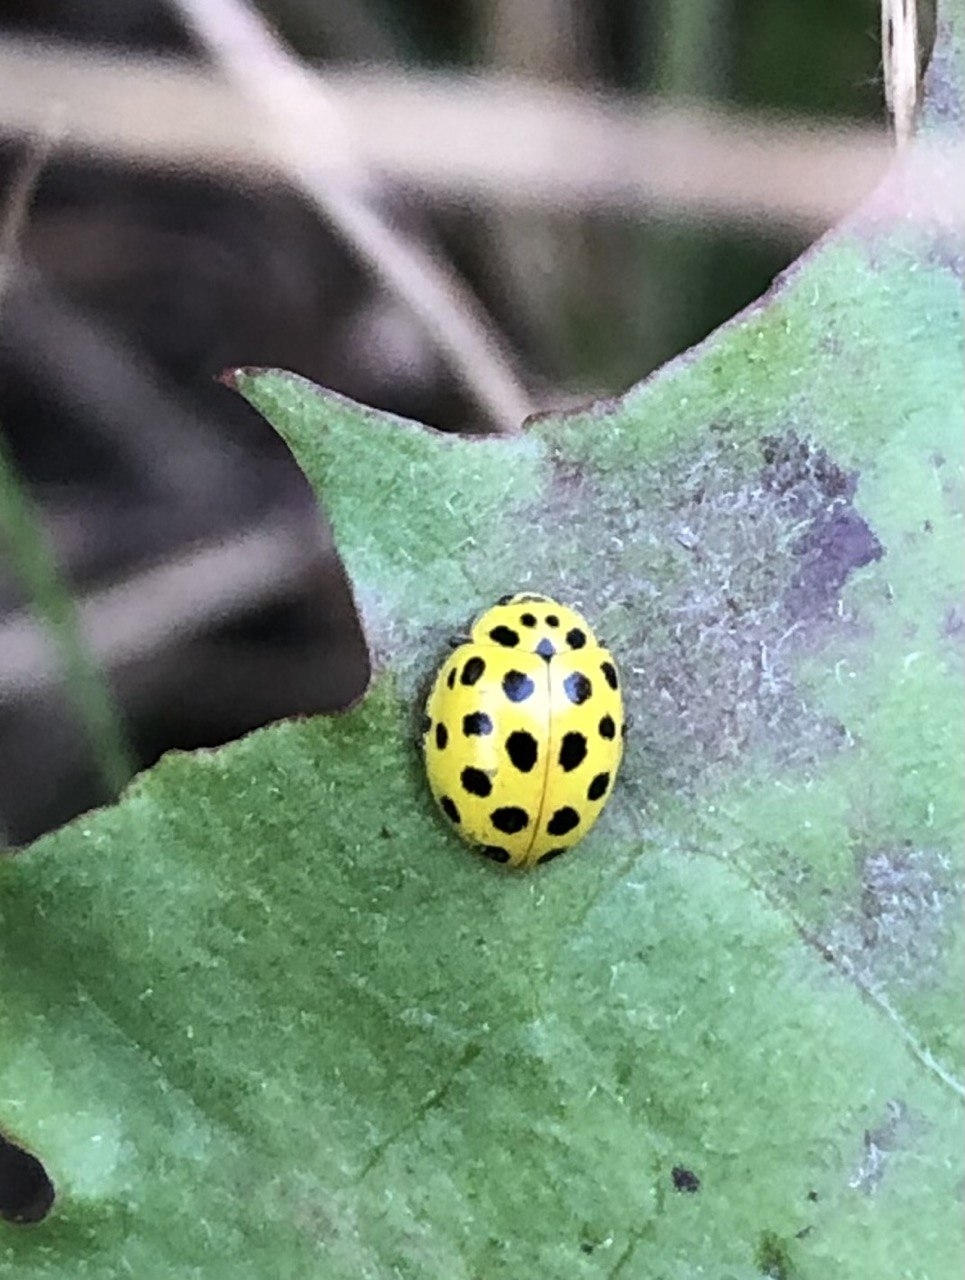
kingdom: Animalia
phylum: Arthropoda
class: Insecta
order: Coleoptera
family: Coccinellidae
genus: Psyllobora
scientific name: Psyllobora vigintiduopunctata
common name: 22-spot ladybird
